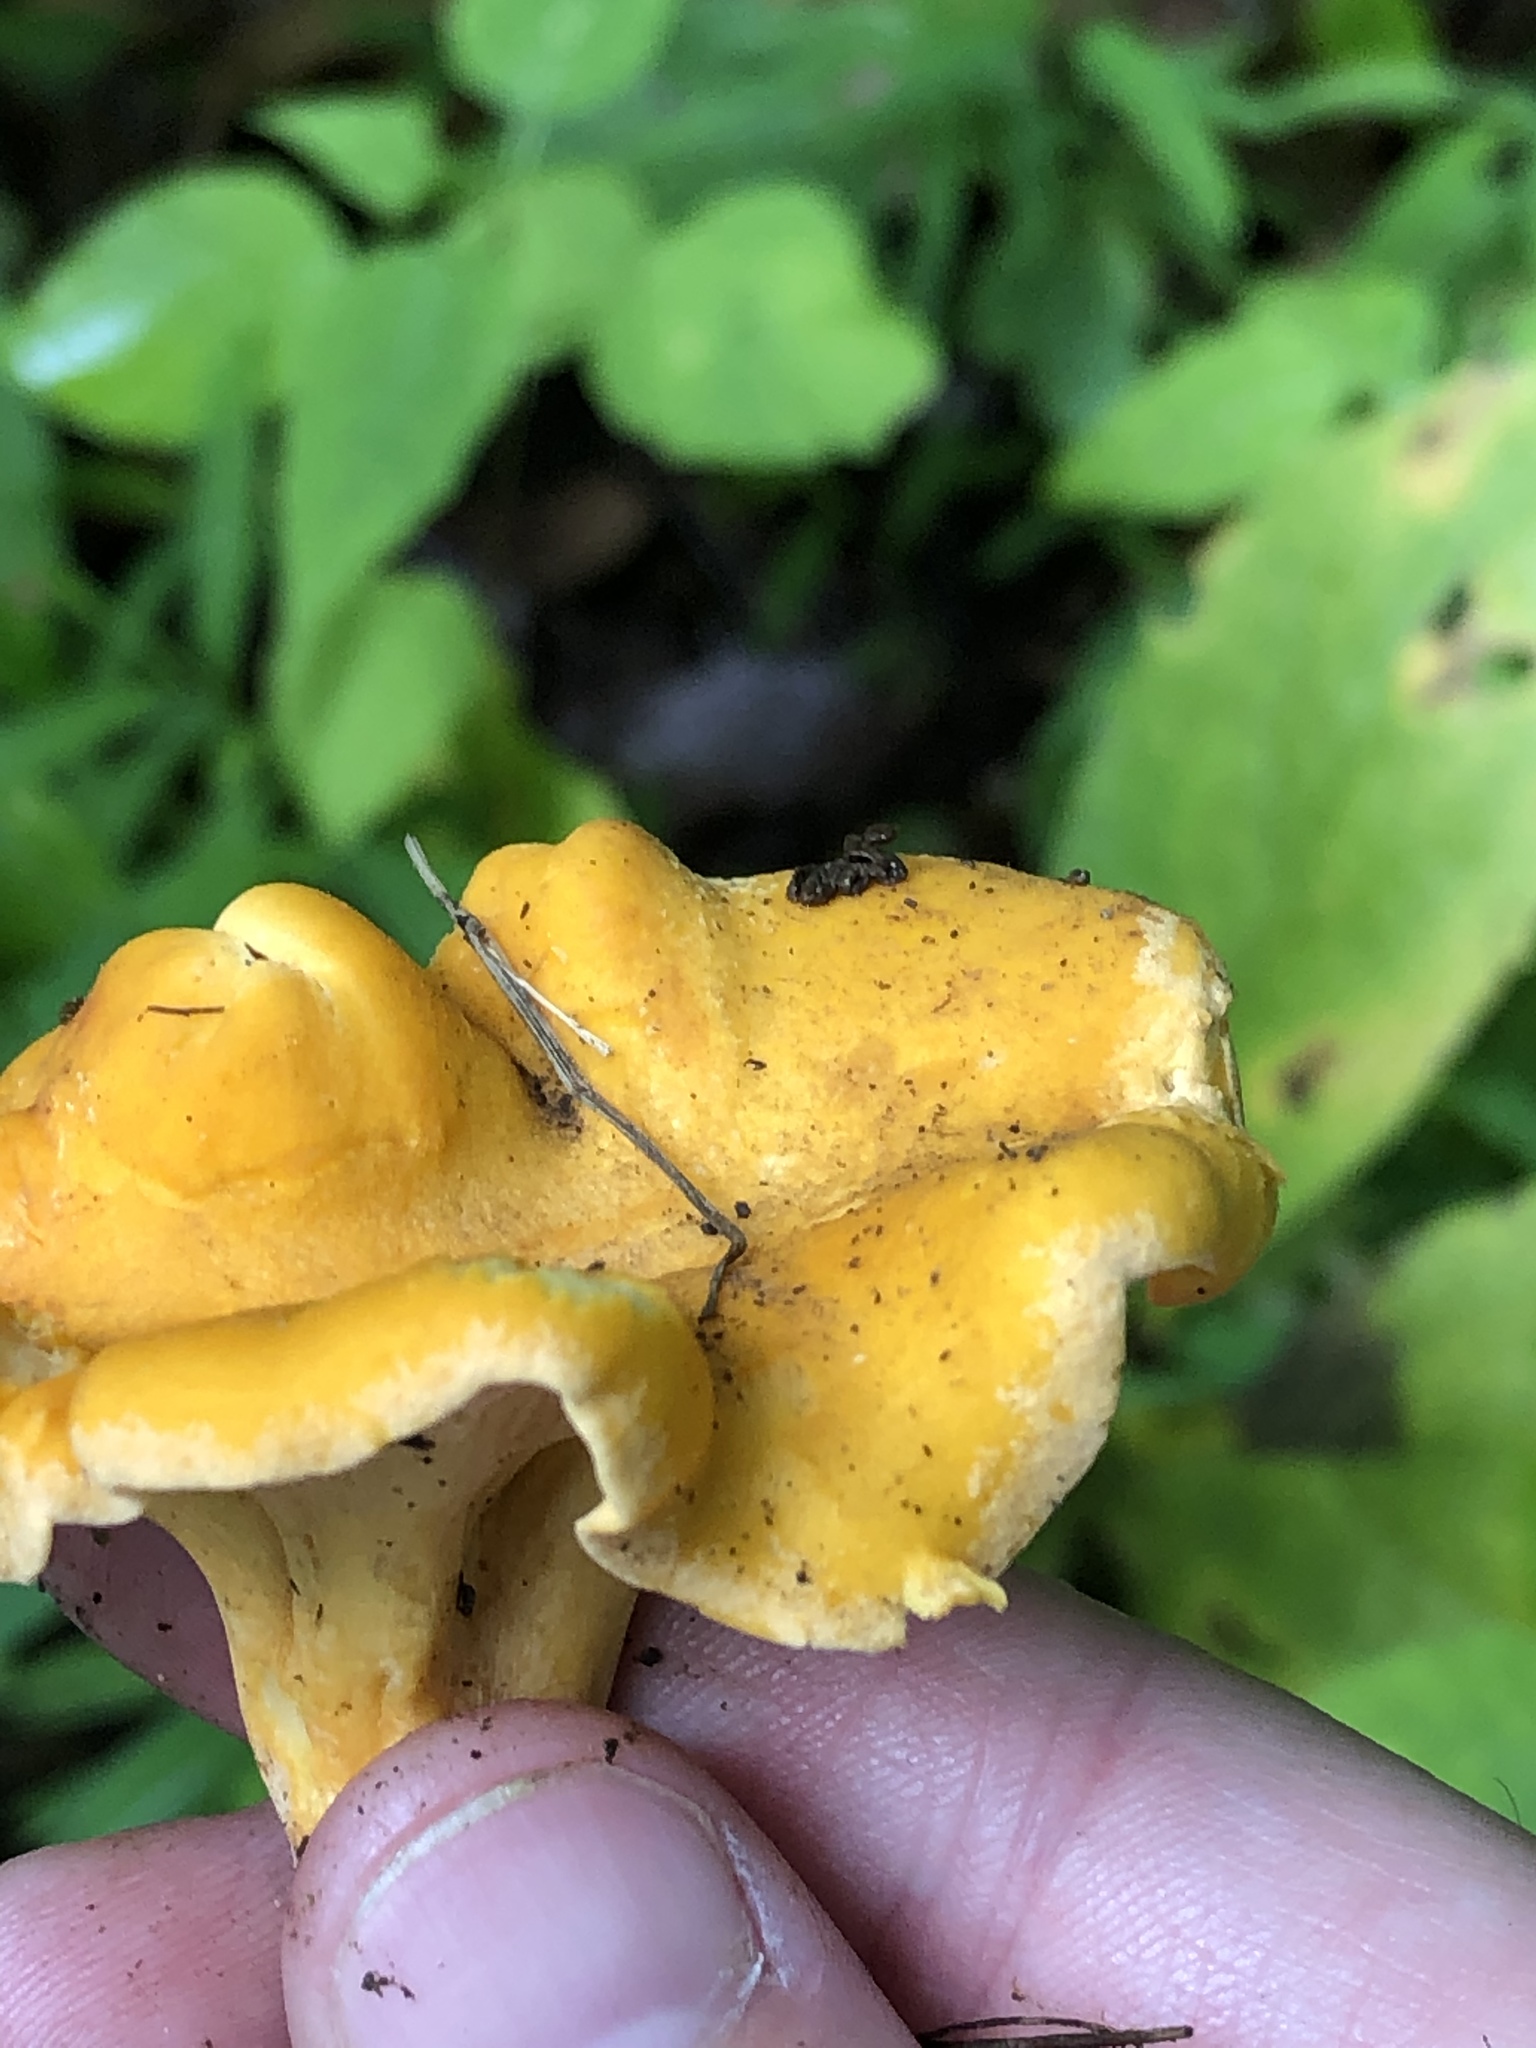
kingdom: Fungi
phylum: Basidiomycota
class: Agaricomycetes
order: Cantharellales
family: Hydnaceae
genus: Cantharellus
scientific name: Cantharellus lateritius
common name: Smooth chanterelle
